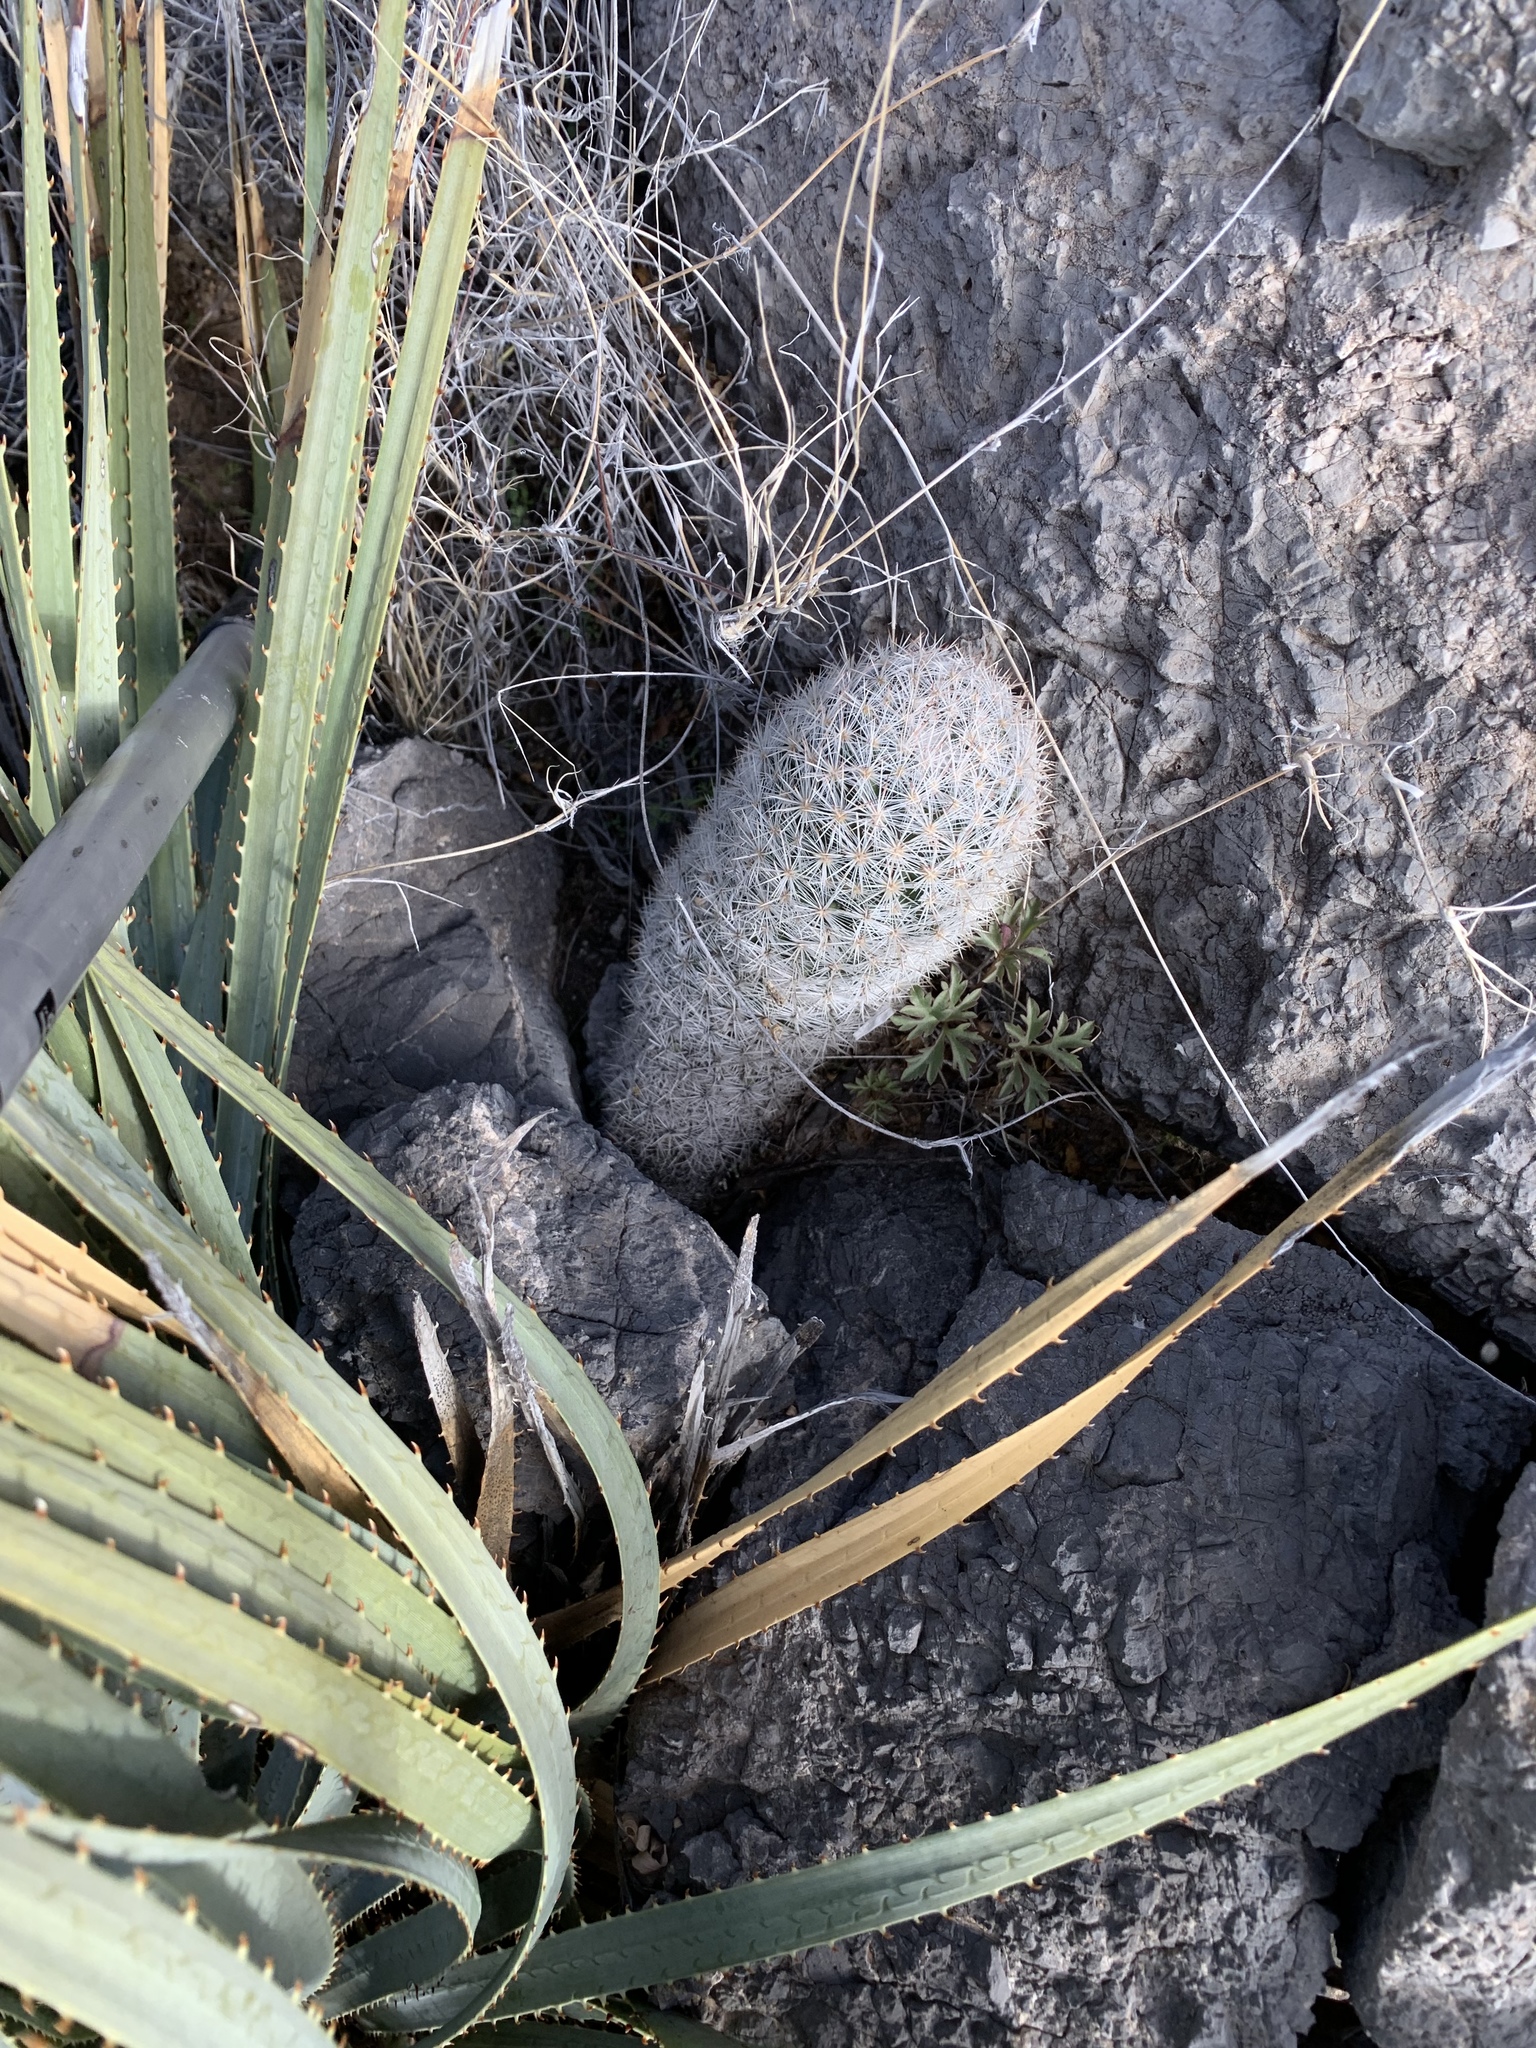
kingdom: Plantae
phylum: Tracheophyta
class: Magnoliopsida
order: Caryophyllales
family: Cactaceae
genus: Pelecyphora
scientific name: Pelecyphora sneedii
